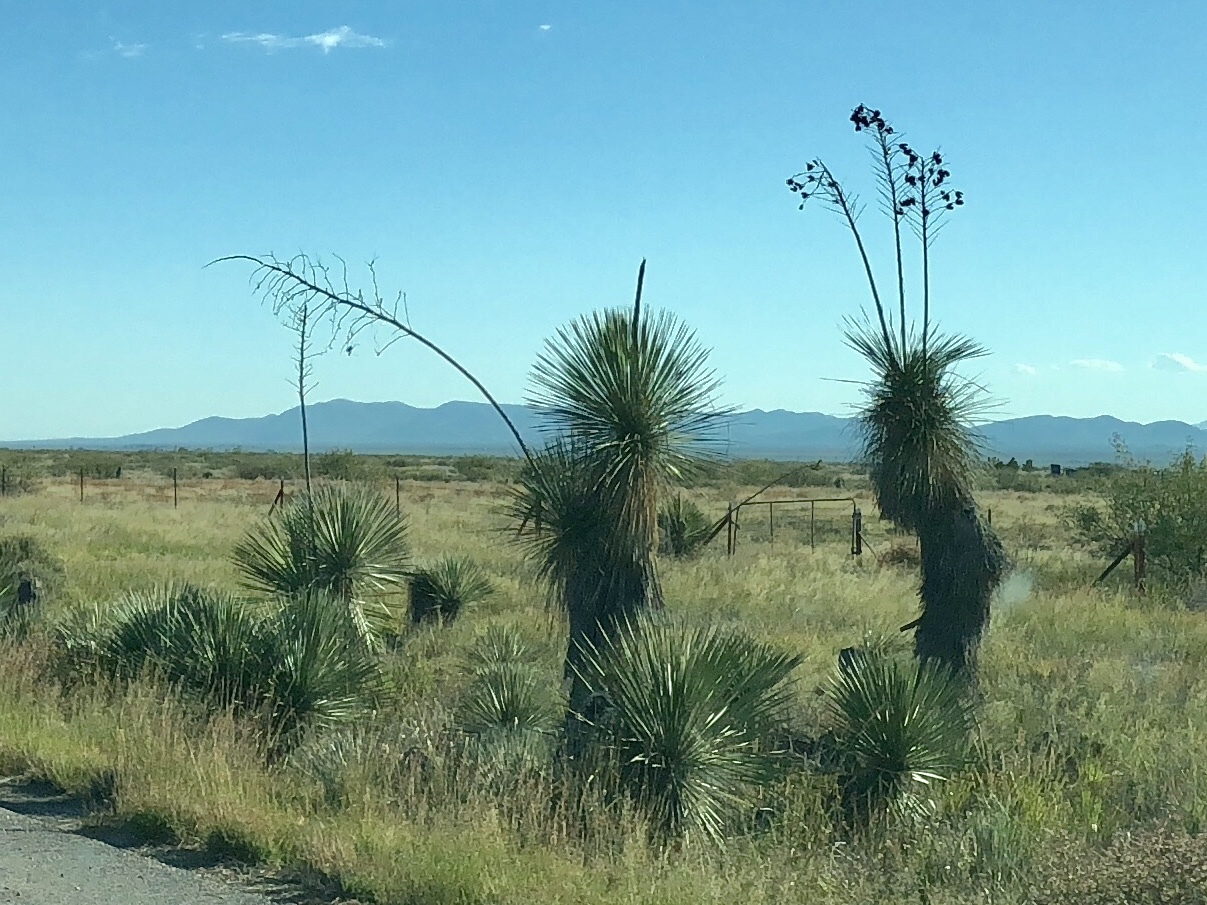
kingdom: Plantae
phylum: Tracheophyta
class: Liliopsida
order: Asparagales
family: Asparagaceae
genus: Yucca
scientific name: Yucca elata
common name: Palmella
